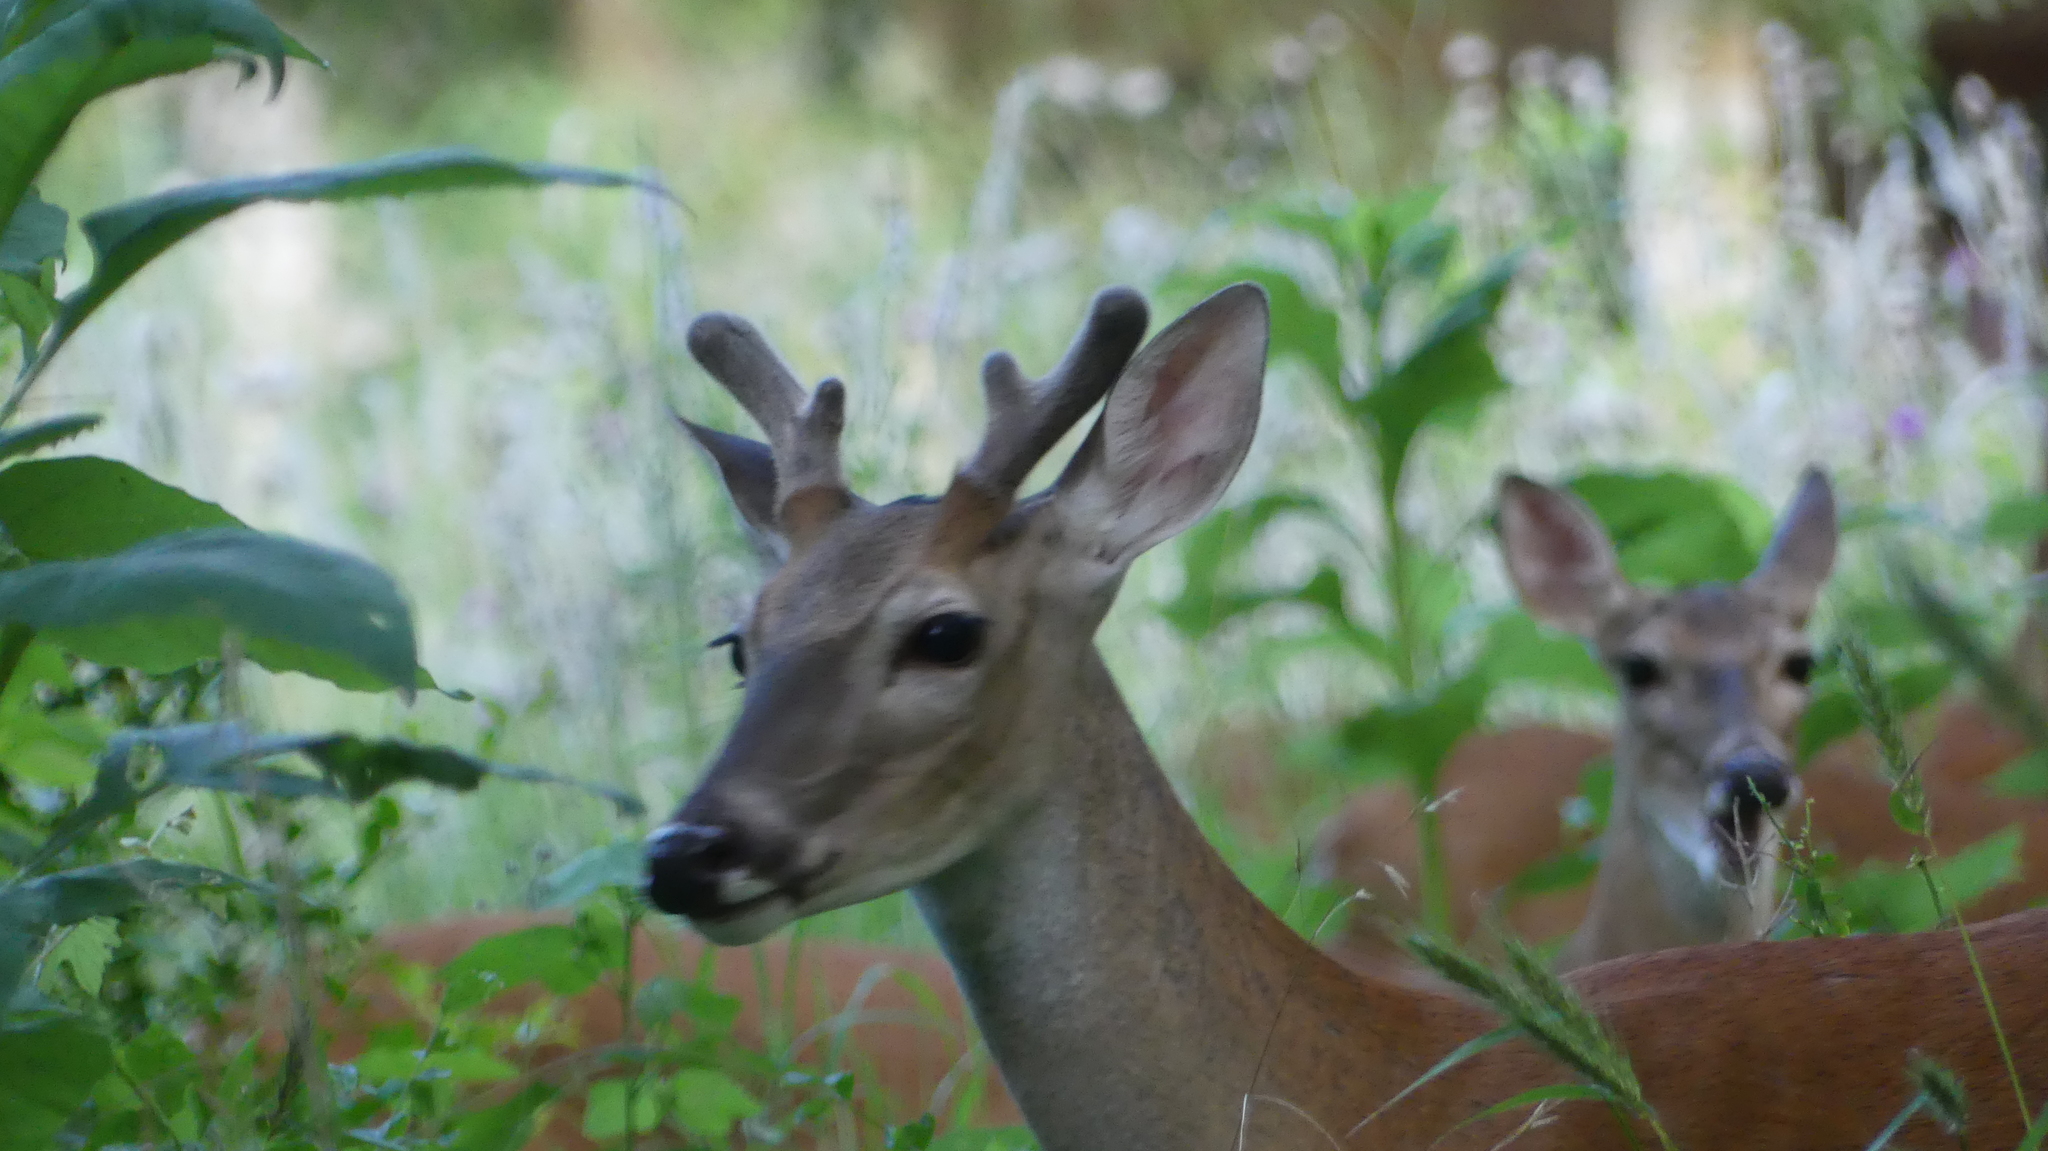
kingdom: Animalia
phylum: Chordata
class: Mammalia
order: Artiodactyla
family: Cervidae
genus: Odocoileus
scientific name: Odocoileus virginianus
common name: White-tailed deer
